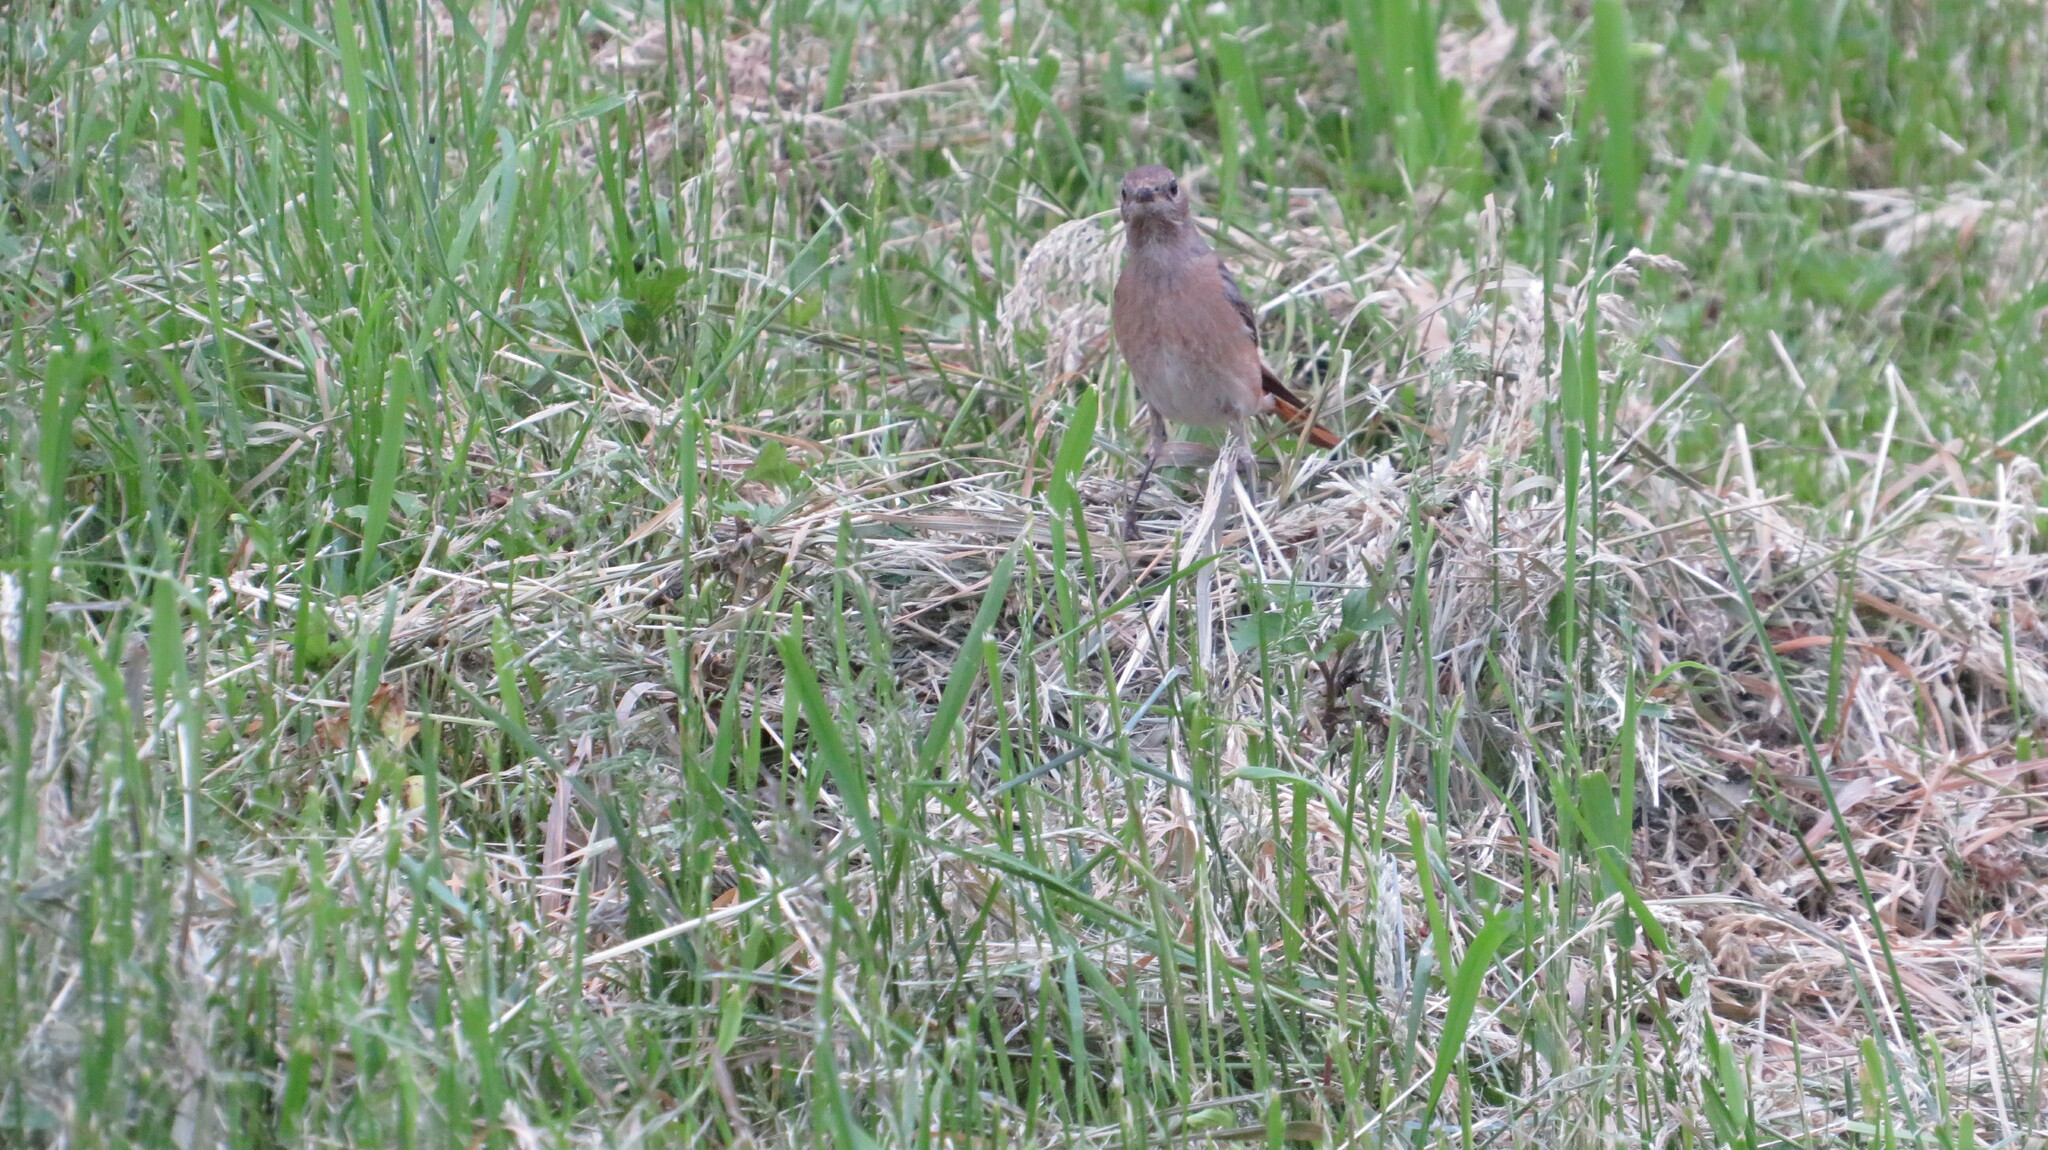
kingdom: Animalia
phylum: Chordata
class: Aves
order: Passeriformes
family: Muscicapidae
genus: Phoenicurus
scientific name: Phoenicurus phoenicurus
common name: Common redstart
